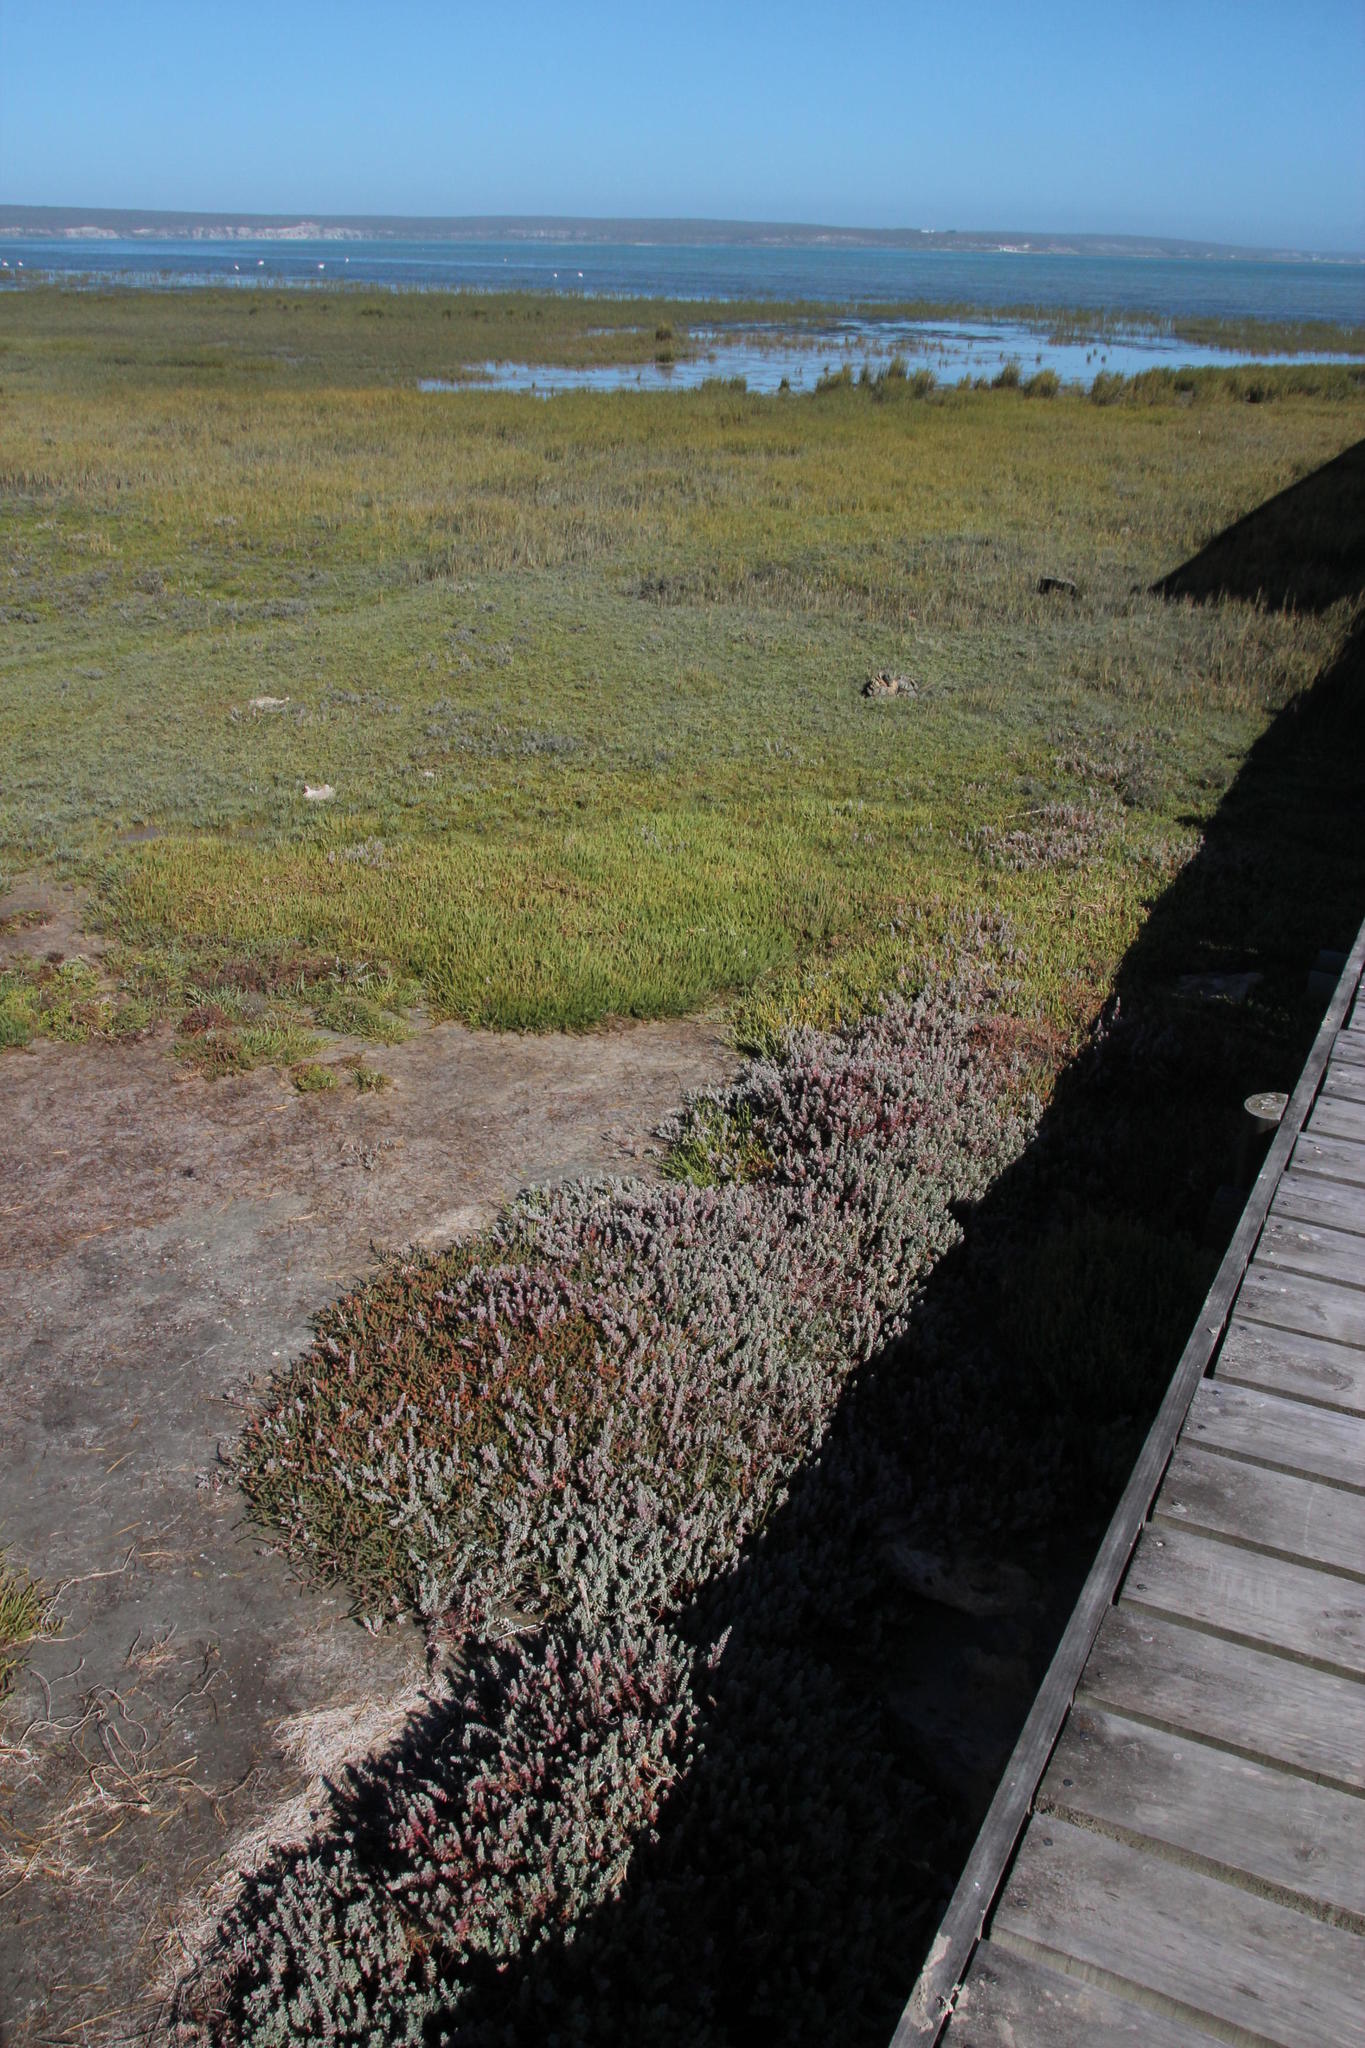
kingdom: Plantae
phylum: Tracheophyta
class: Magnoliopsida
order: Caryophyllales
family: Amaranthaceae
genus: Chenolea
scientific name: Chenolea diffusa
